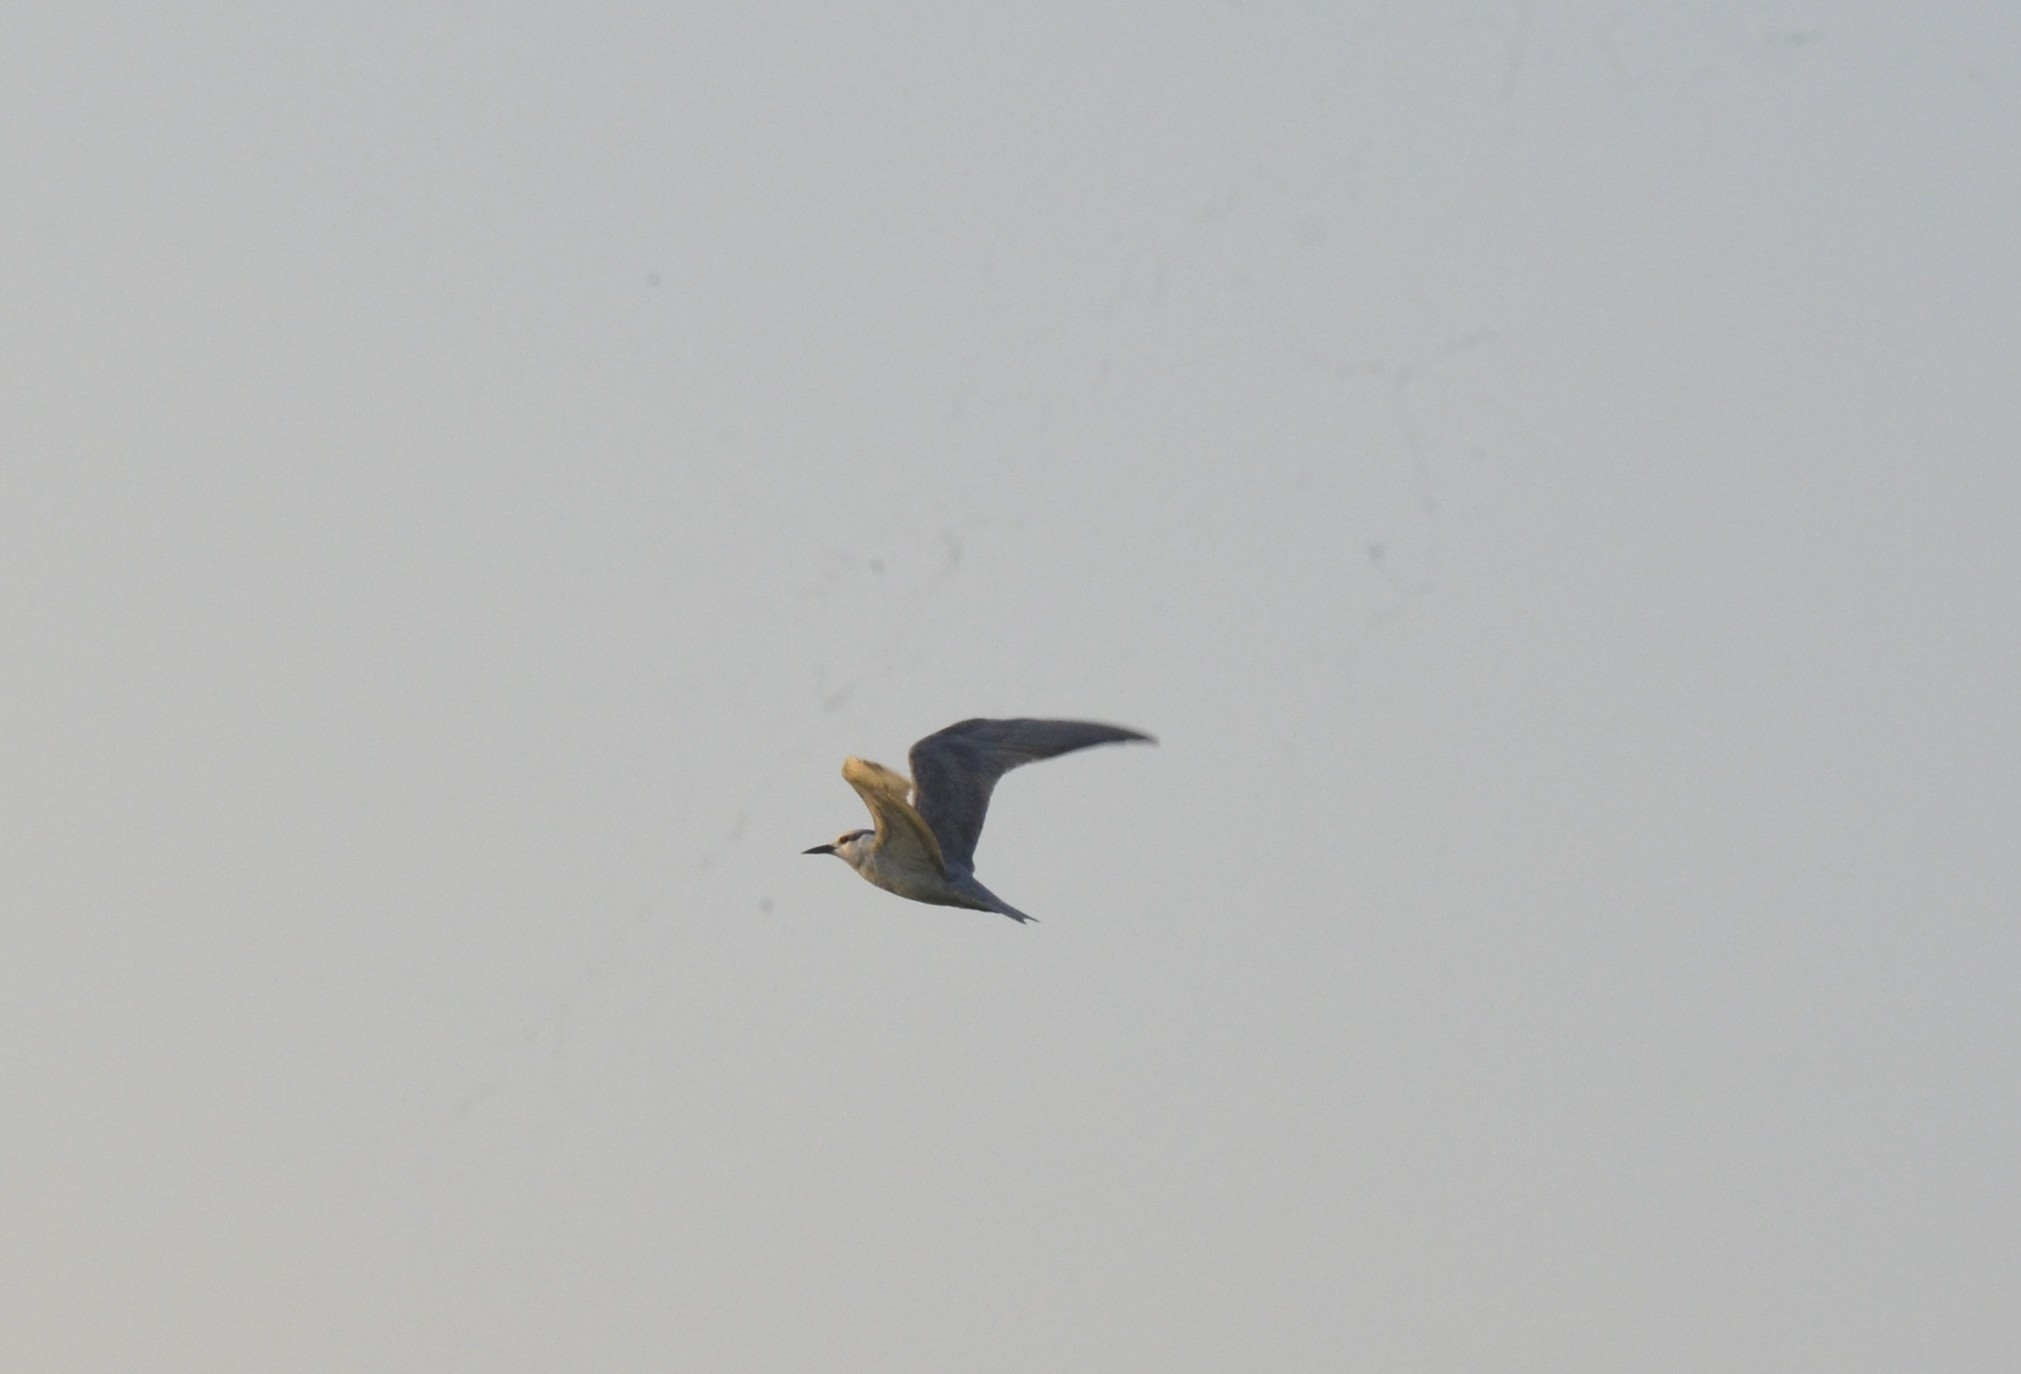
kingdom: Animalia
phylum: Chordata
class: Aves
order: Charadriiformes
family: Laridae
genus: Chlidonias
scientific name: Chlidonias hybrida
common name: Whiskered tern
